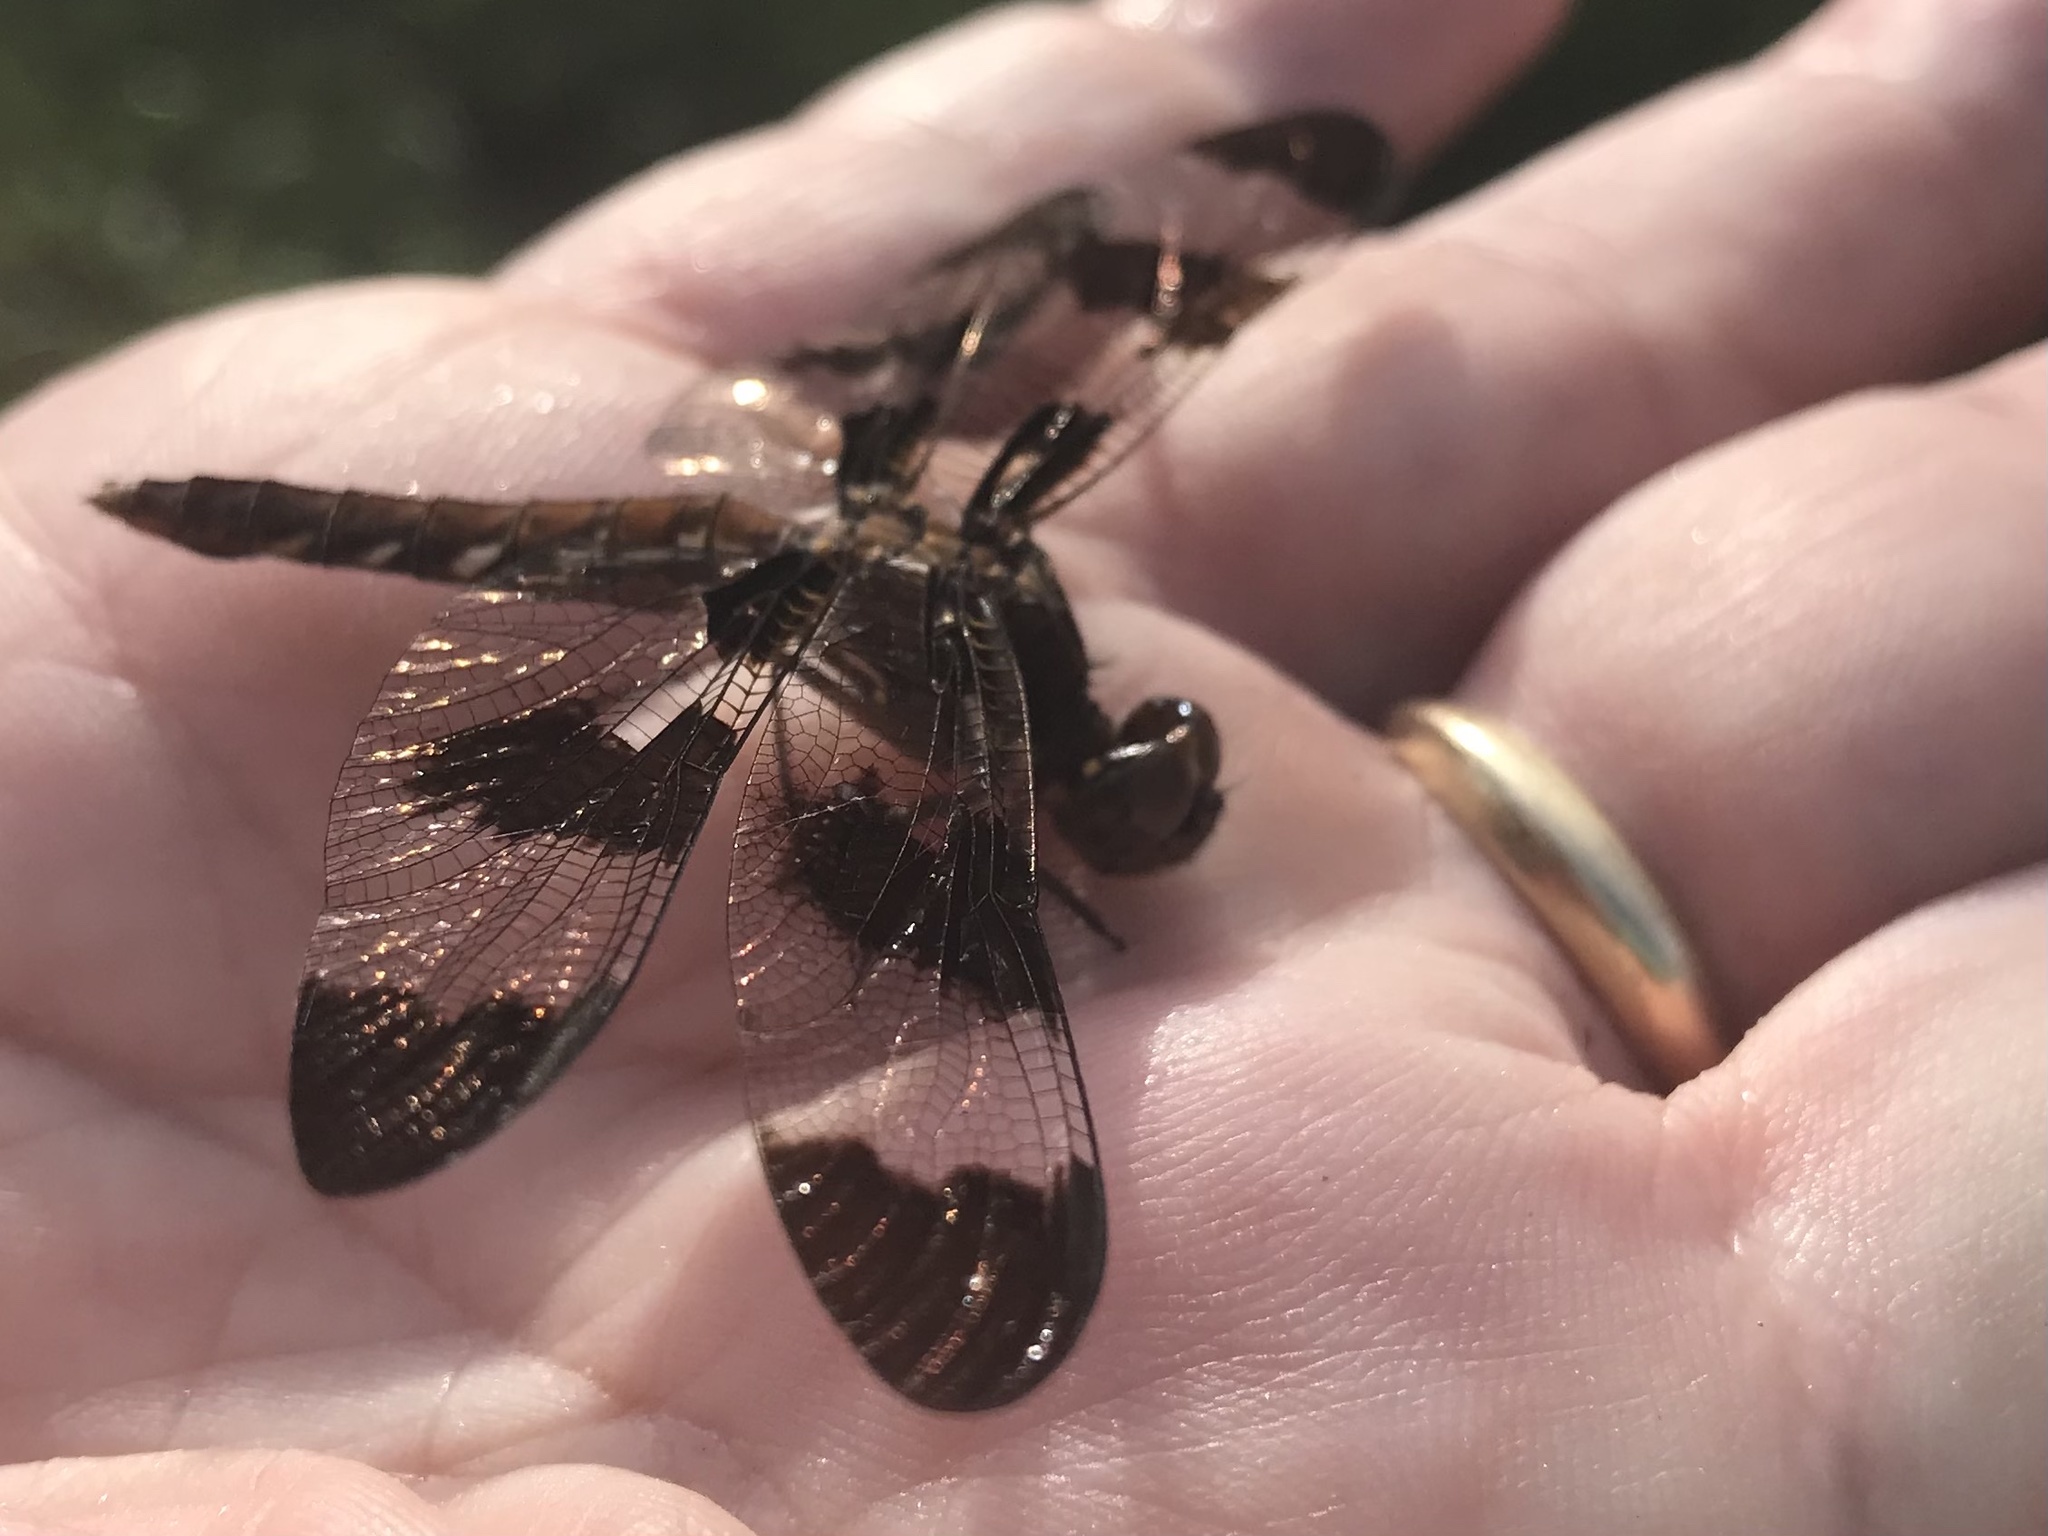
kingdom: Animalia
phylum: Arthropoda
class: Insecta
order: Odonata
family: Libellulidae
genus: Plathemis
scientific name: Plathemis lydia
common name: Common whitetail
